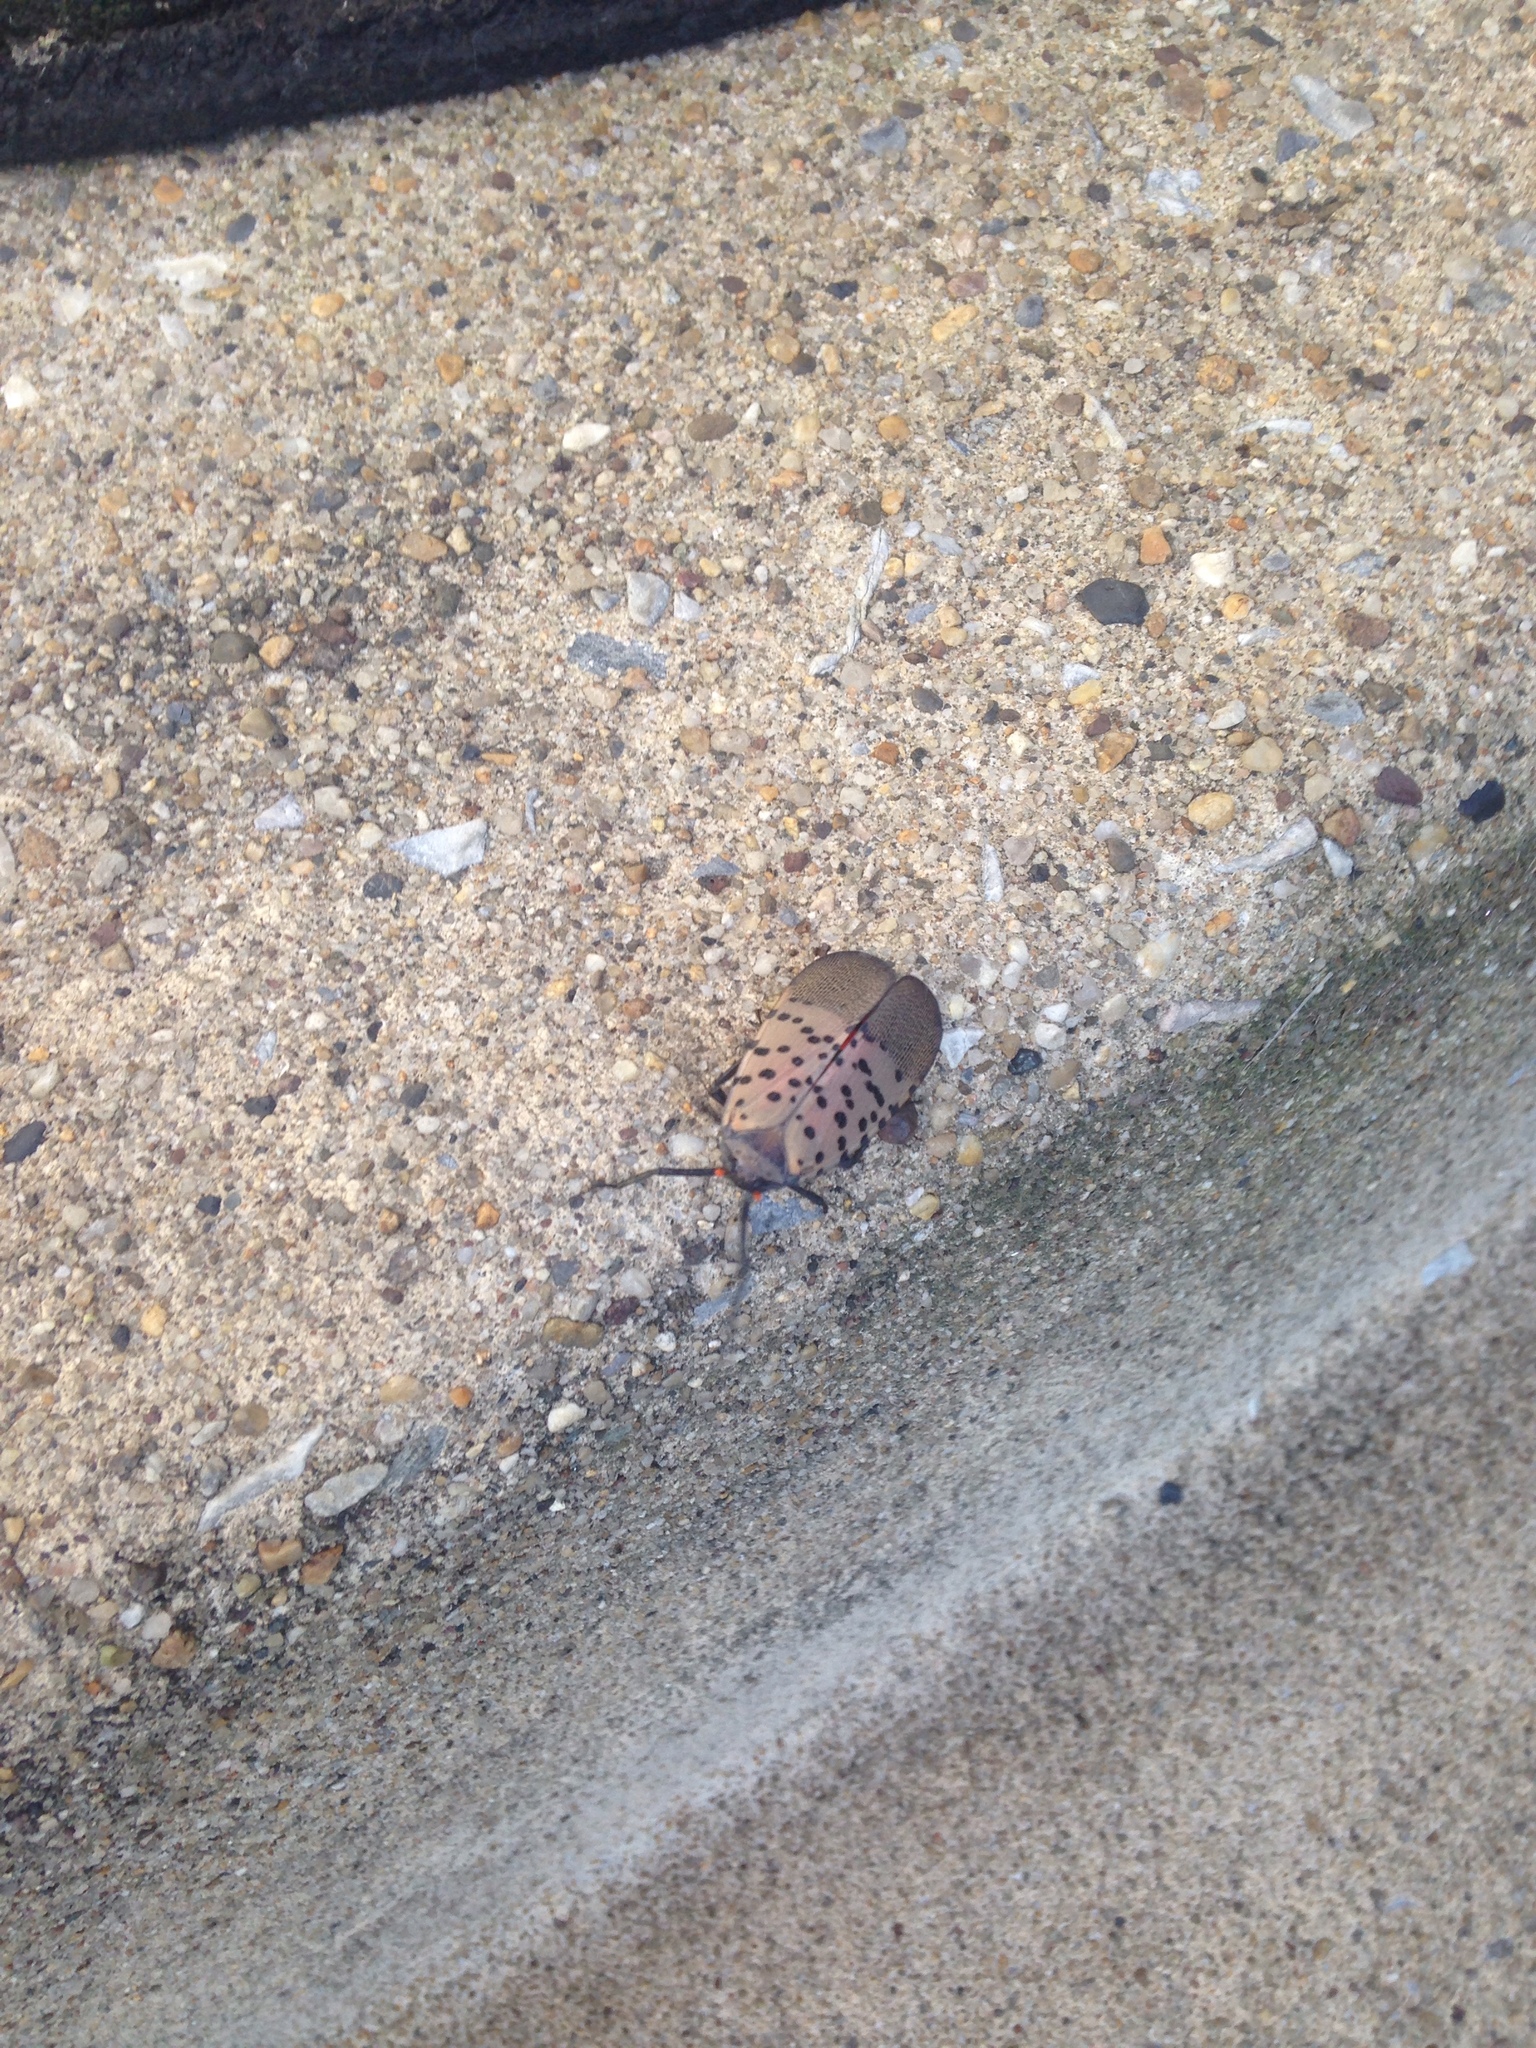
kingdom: Animalia
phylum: Arthropoda
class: Insecta
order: Hemiptera
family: Fulgoridae
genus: Lycorma
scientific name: Lycorma delicatula
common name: Spotted lanternfly
